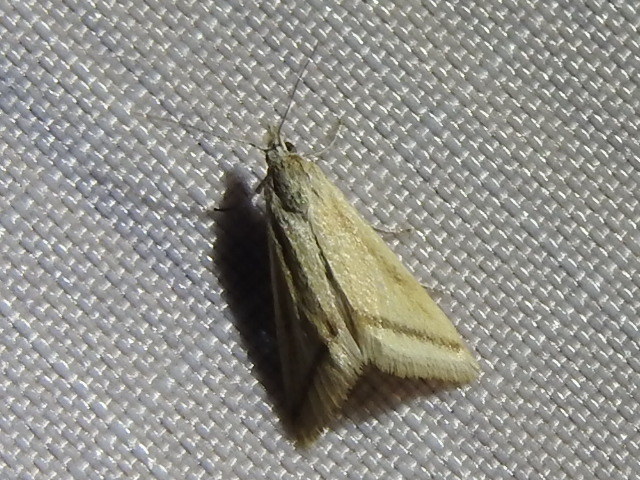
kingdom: Animalia
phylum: Arthropoda
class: Insecta
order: Lepidoptera
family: Crambidae
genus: Microtheoris
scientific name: Microtheoris vibicalis
